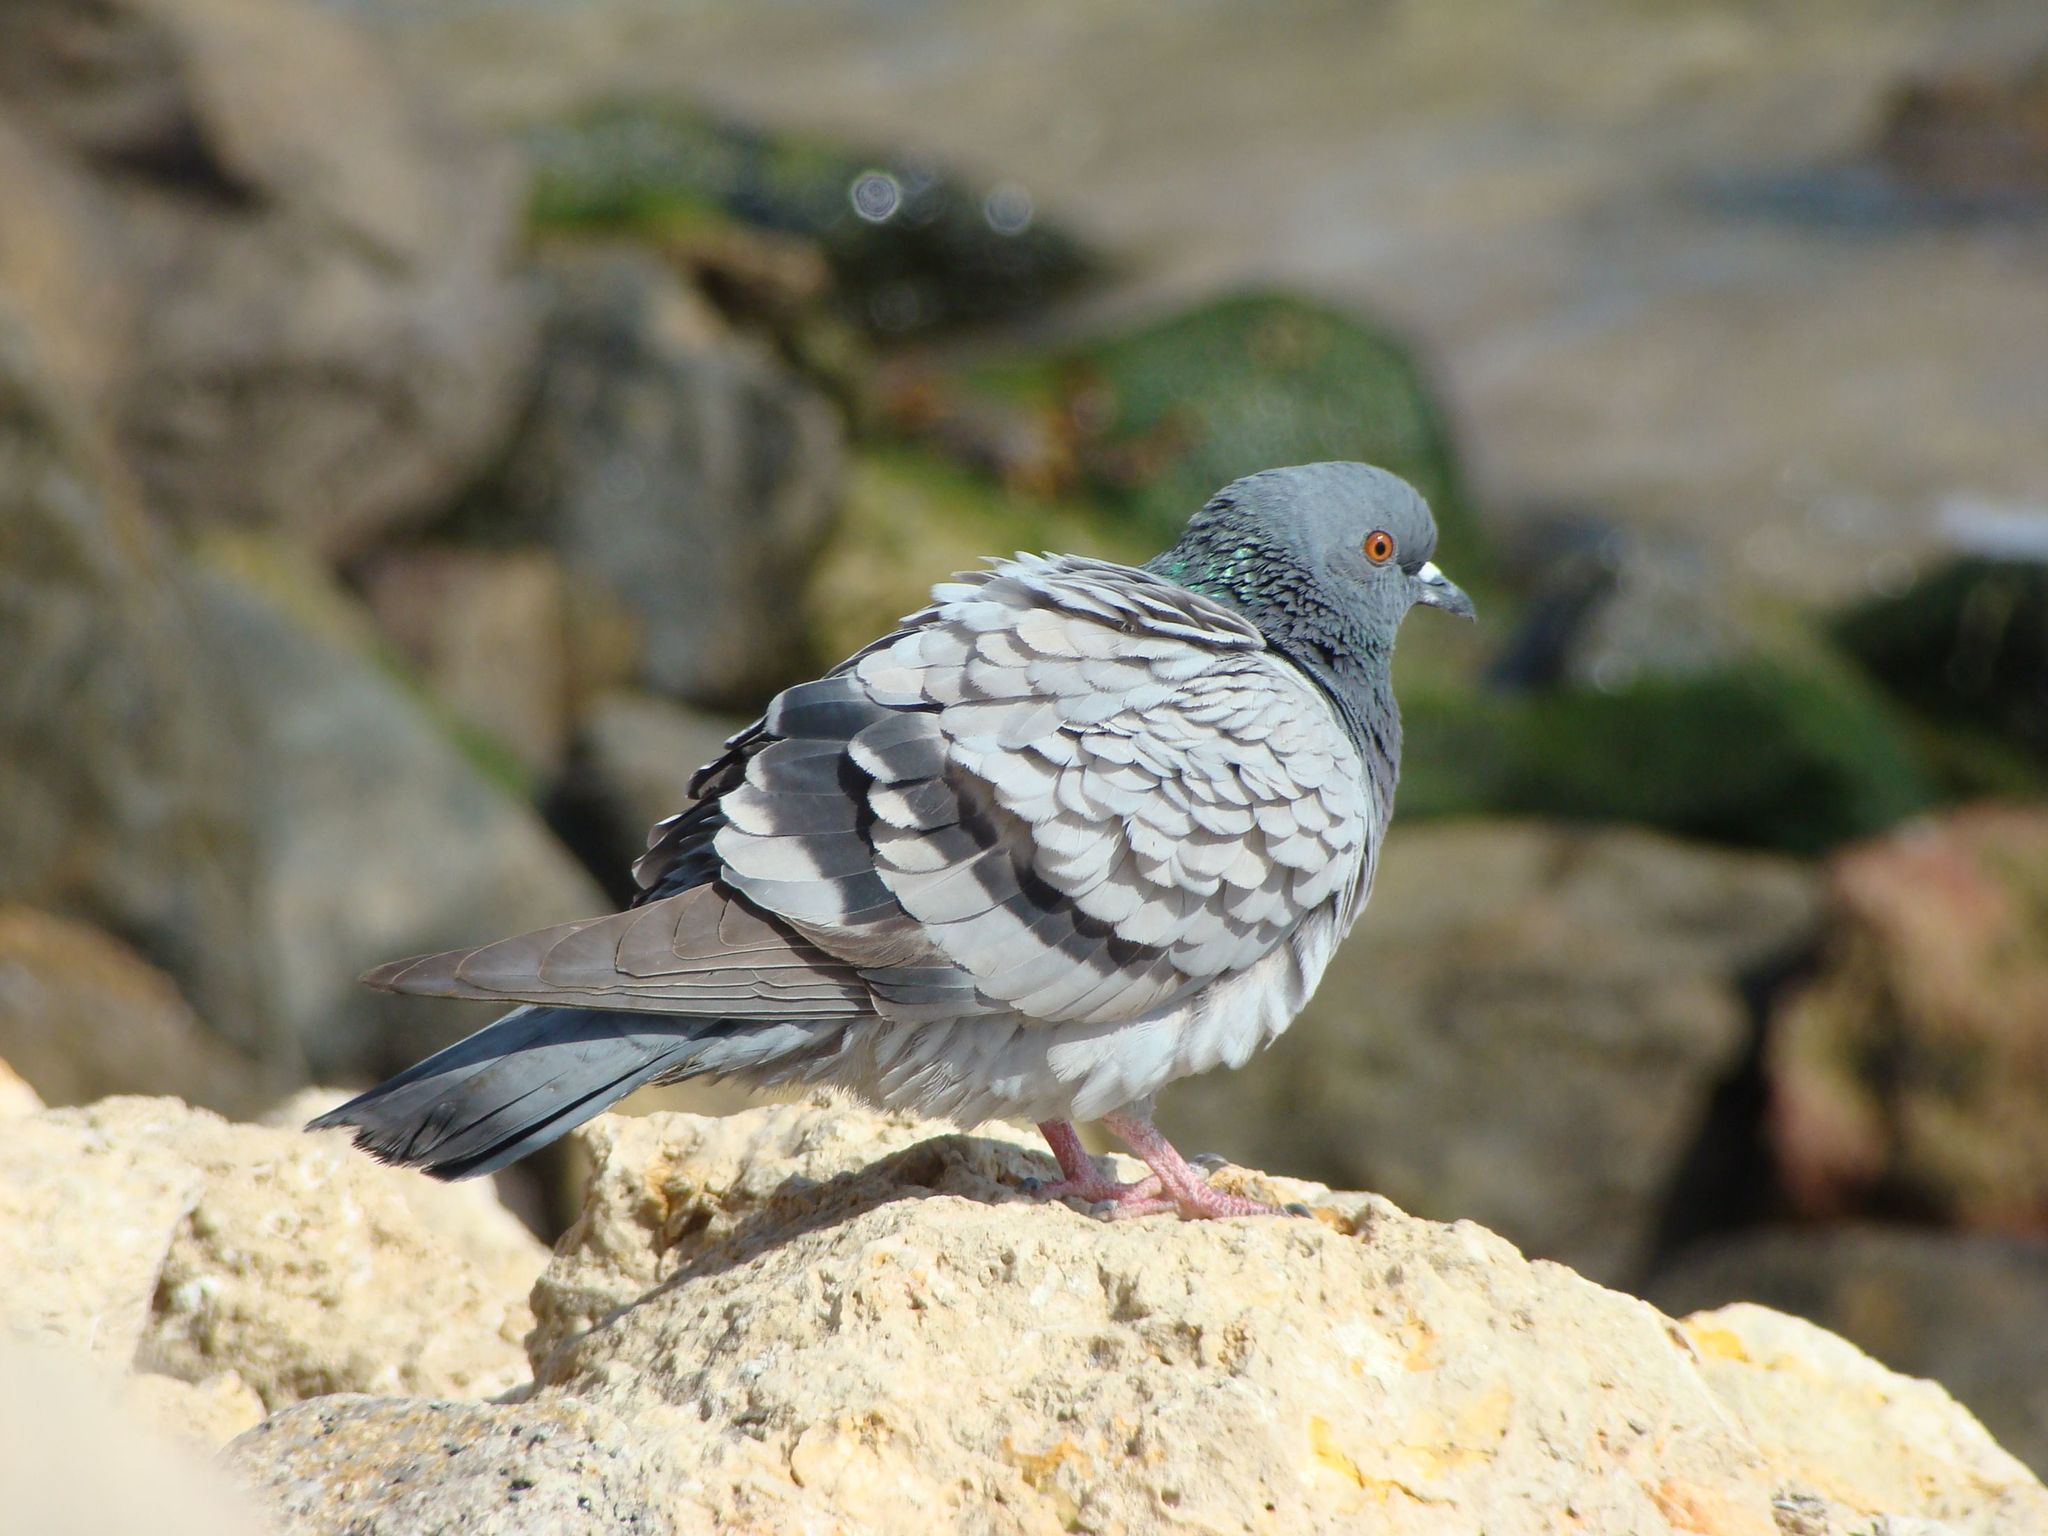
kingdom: Animalia
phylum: Chordata
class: Aves
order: Columbiformes
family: Columbidae
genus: Columba
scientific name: Columba livia
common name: Rock pigeon
